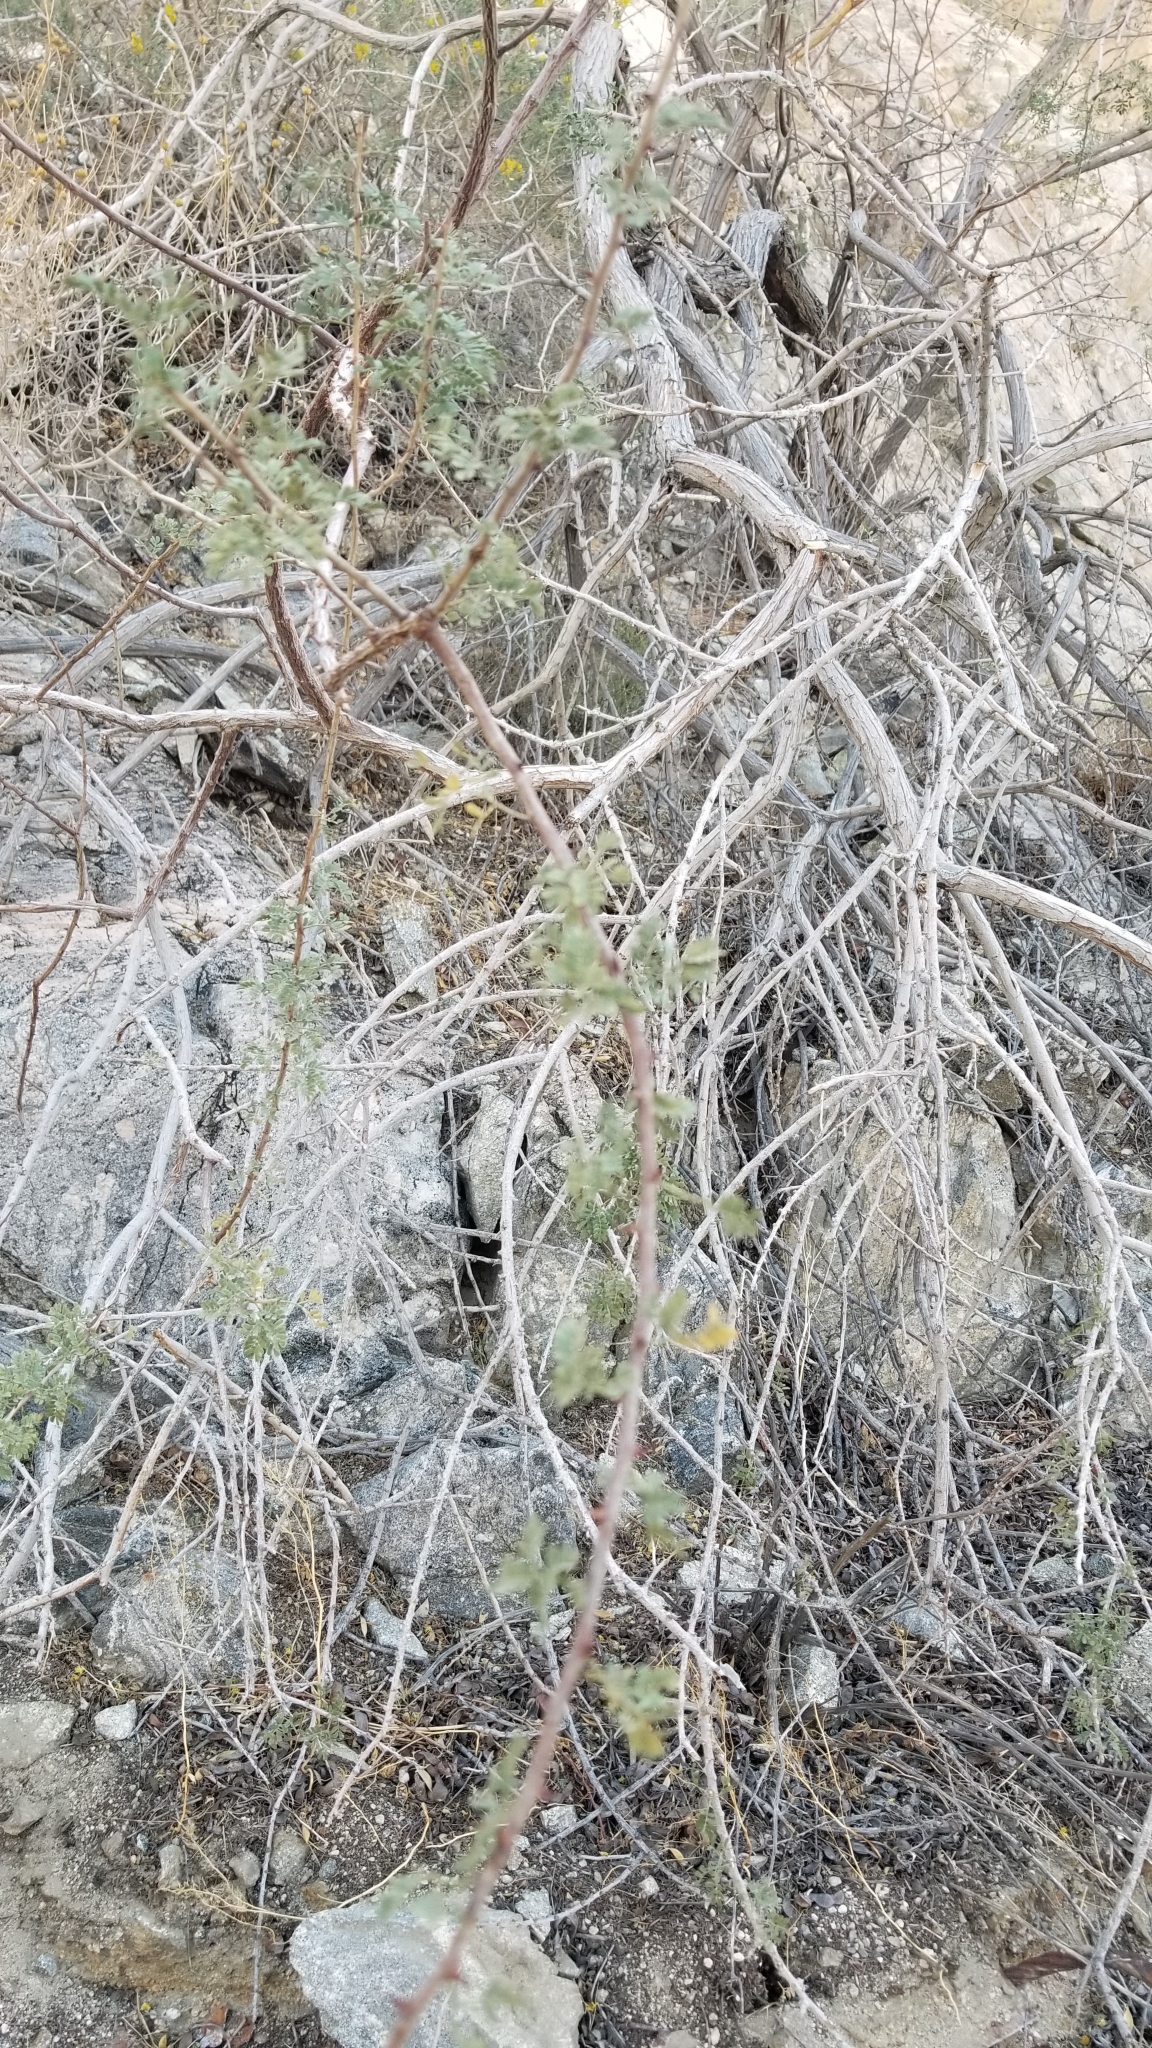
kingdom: Plantae
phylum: Tracheophyta
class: Magnoliopsida
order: Fabales
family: Fabaceae
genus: Senegalia
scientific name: Senegalia greggii
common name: Texas-mimosa
